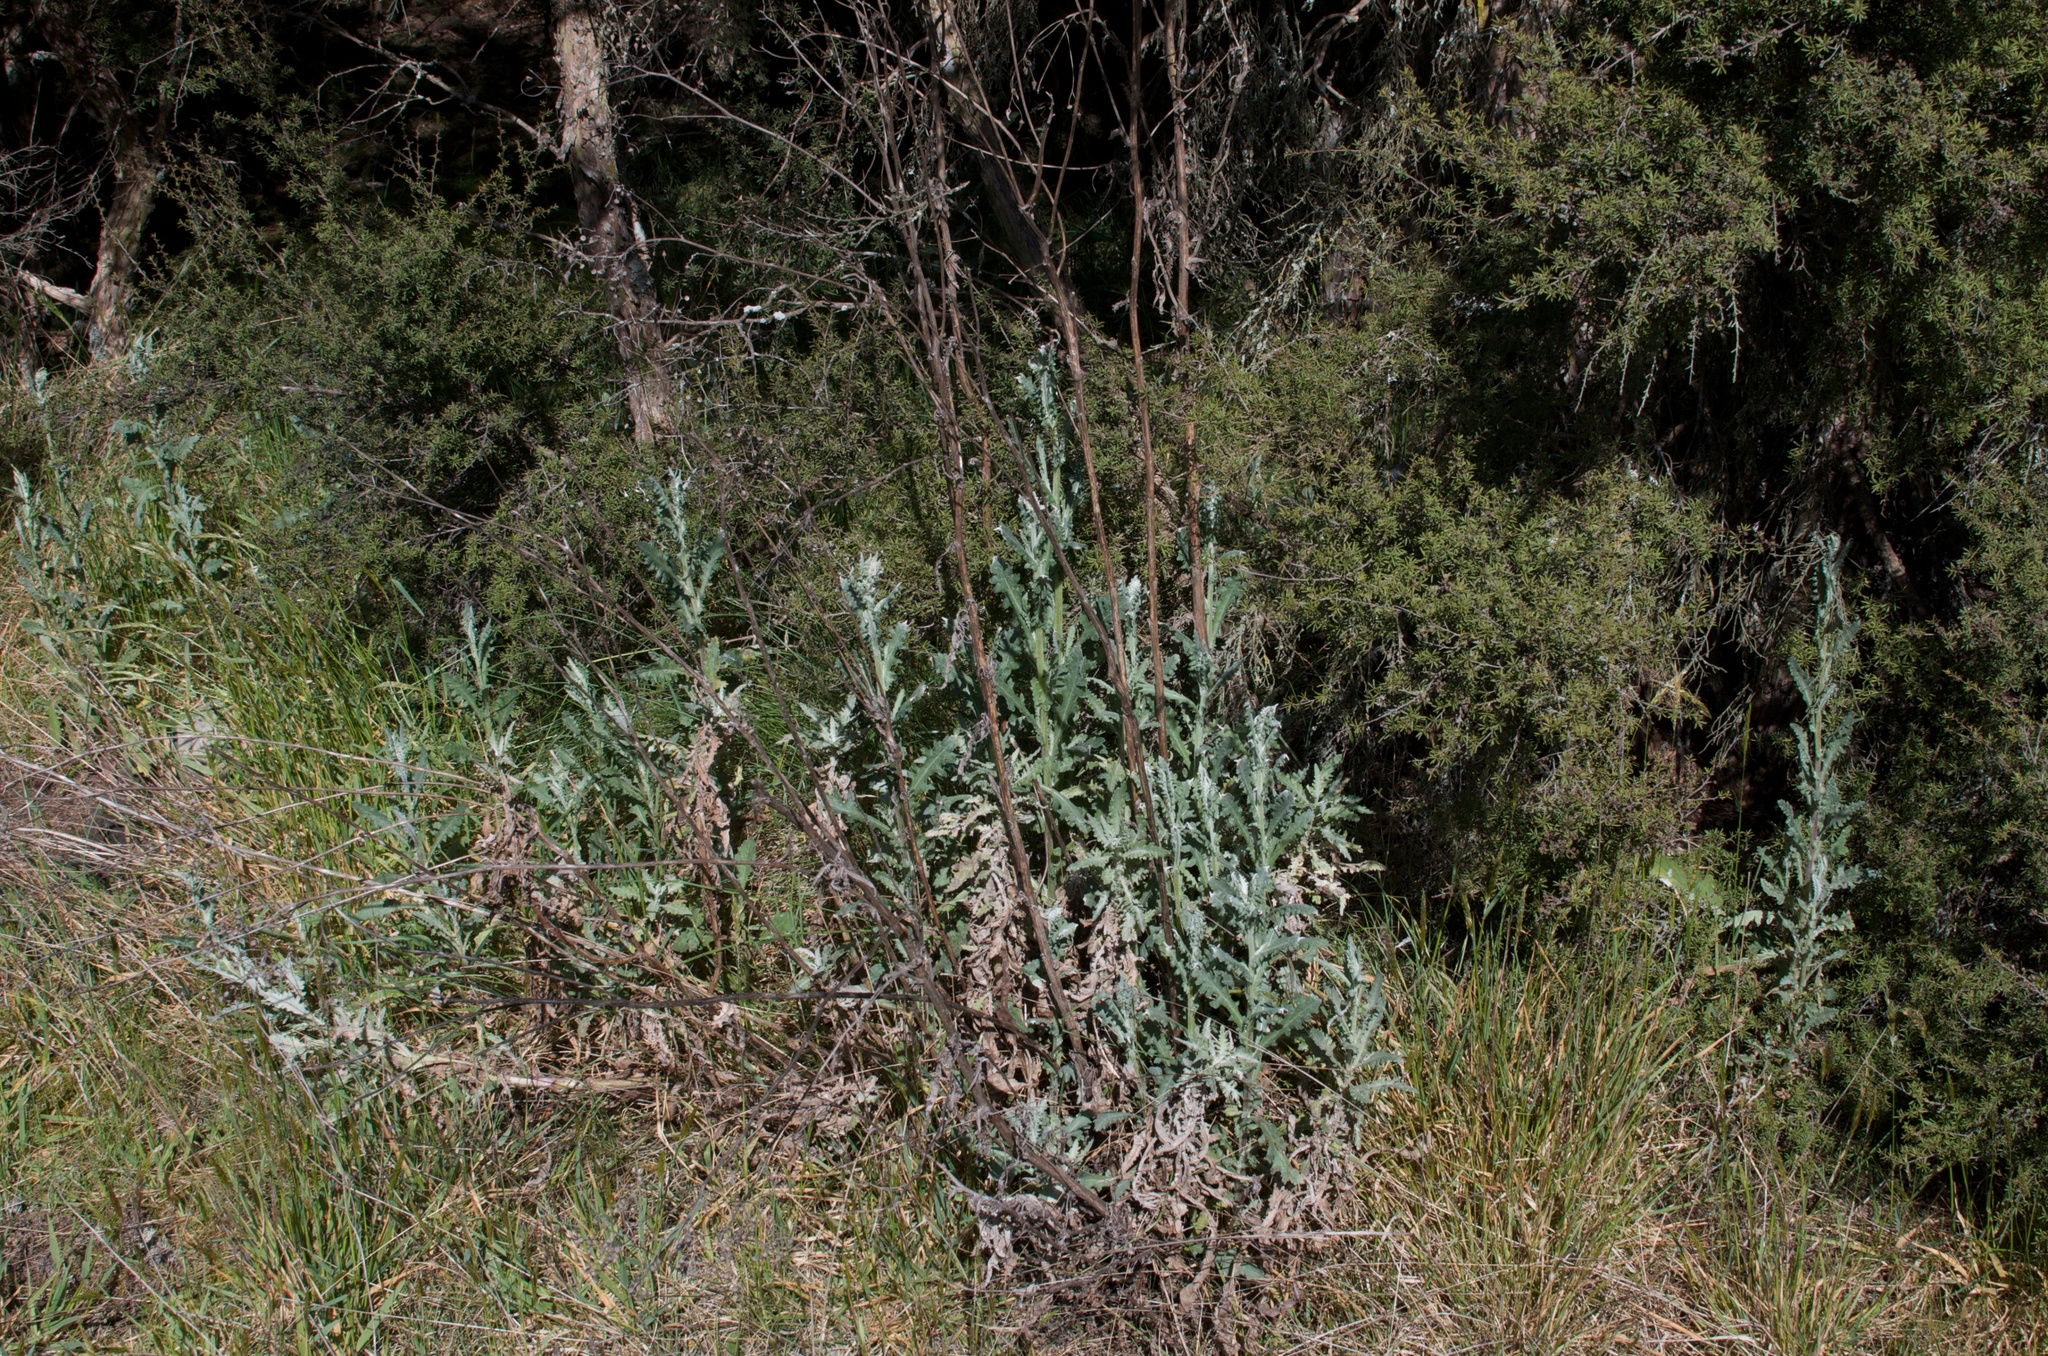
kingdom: Plantae
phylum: Tracheophyta
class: Magnoliopsida
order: Asterales
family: Asteraceae
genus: Senecio
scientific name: Senecio glomeratus
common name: Cutleaf burnweed
